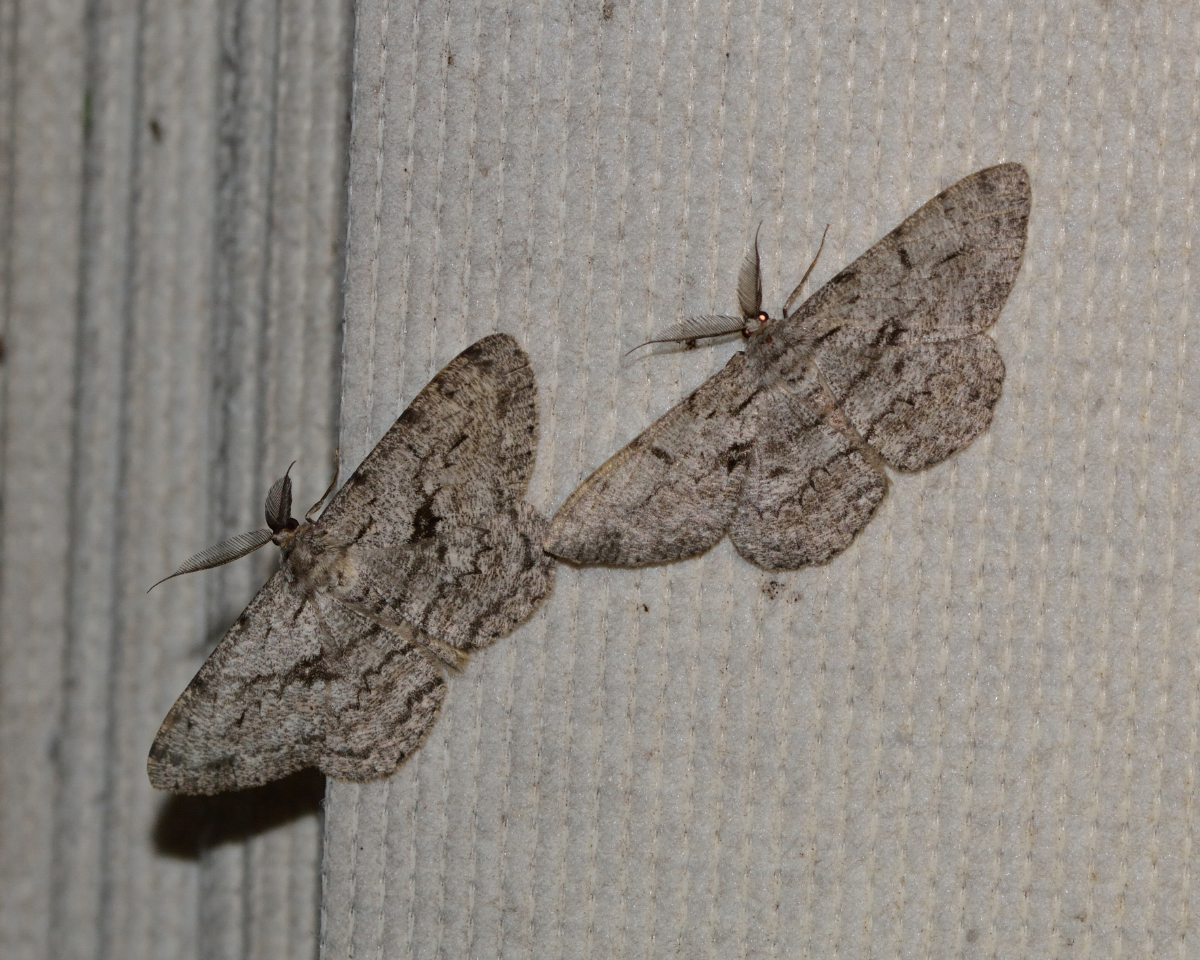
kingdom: Animalia
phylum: Arthropoda
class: Insecta
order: Lepidoptera
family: Geometridae
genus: Hypomecis
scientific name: Hypomecis roboraria
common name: Great oak beauty
